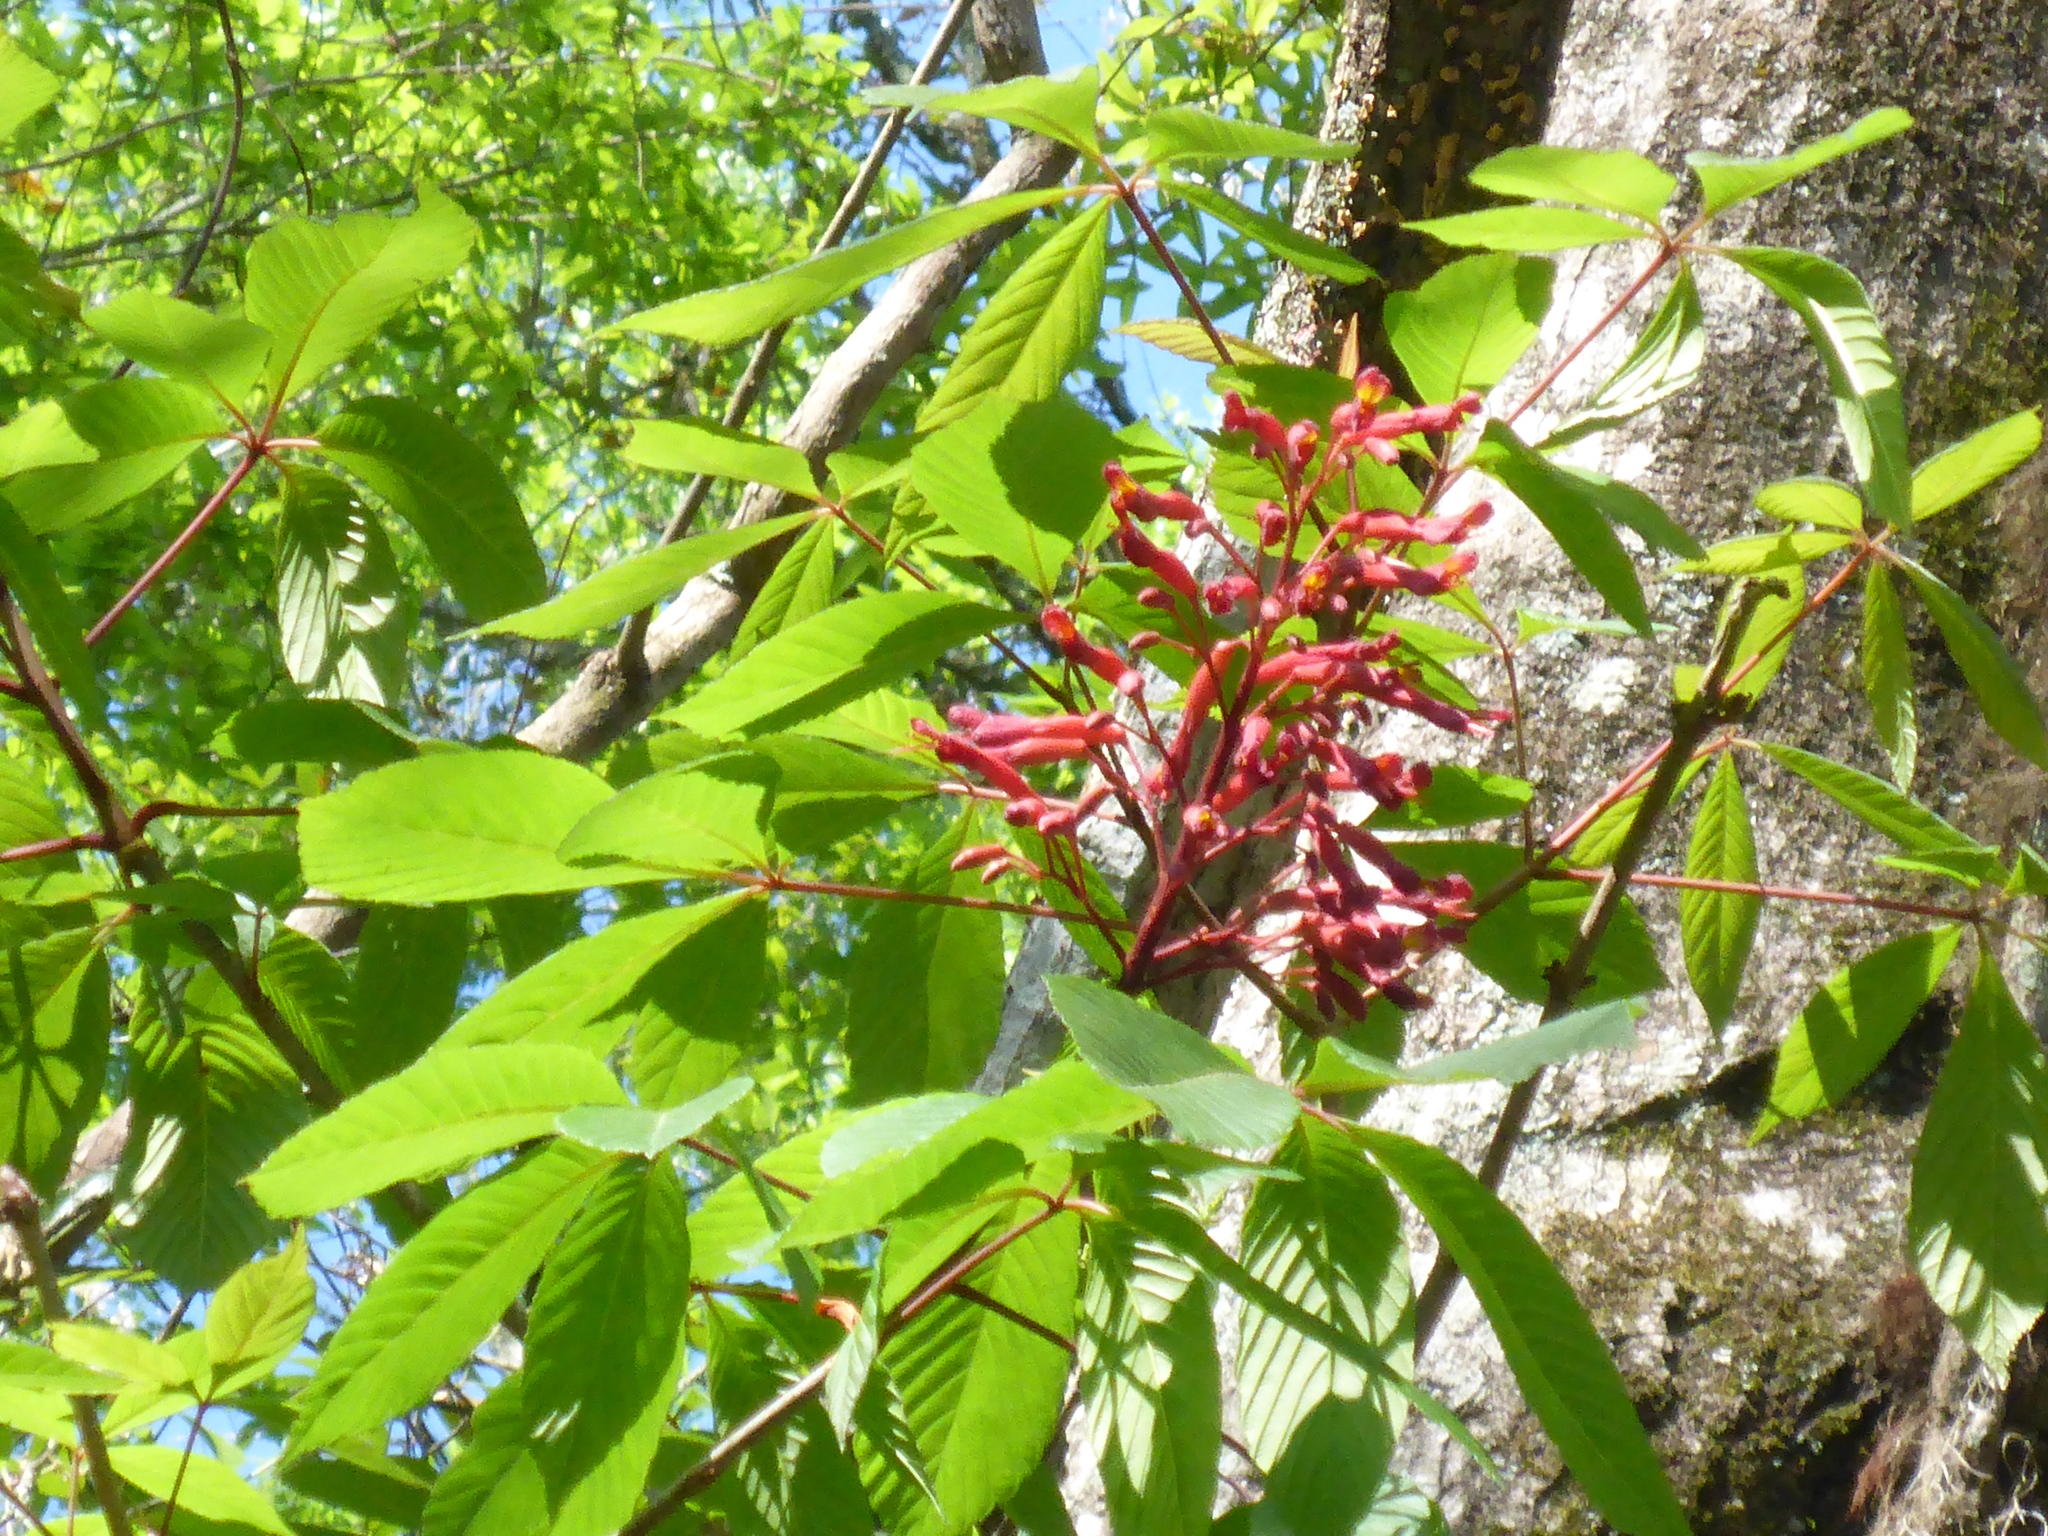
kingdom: Plantae
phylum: Tracheophyta
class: Magnoliopsida
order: Sapindales
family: Sapindaceae
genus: Aesculus
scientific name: Aesculus pavia
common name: Red buckeye
